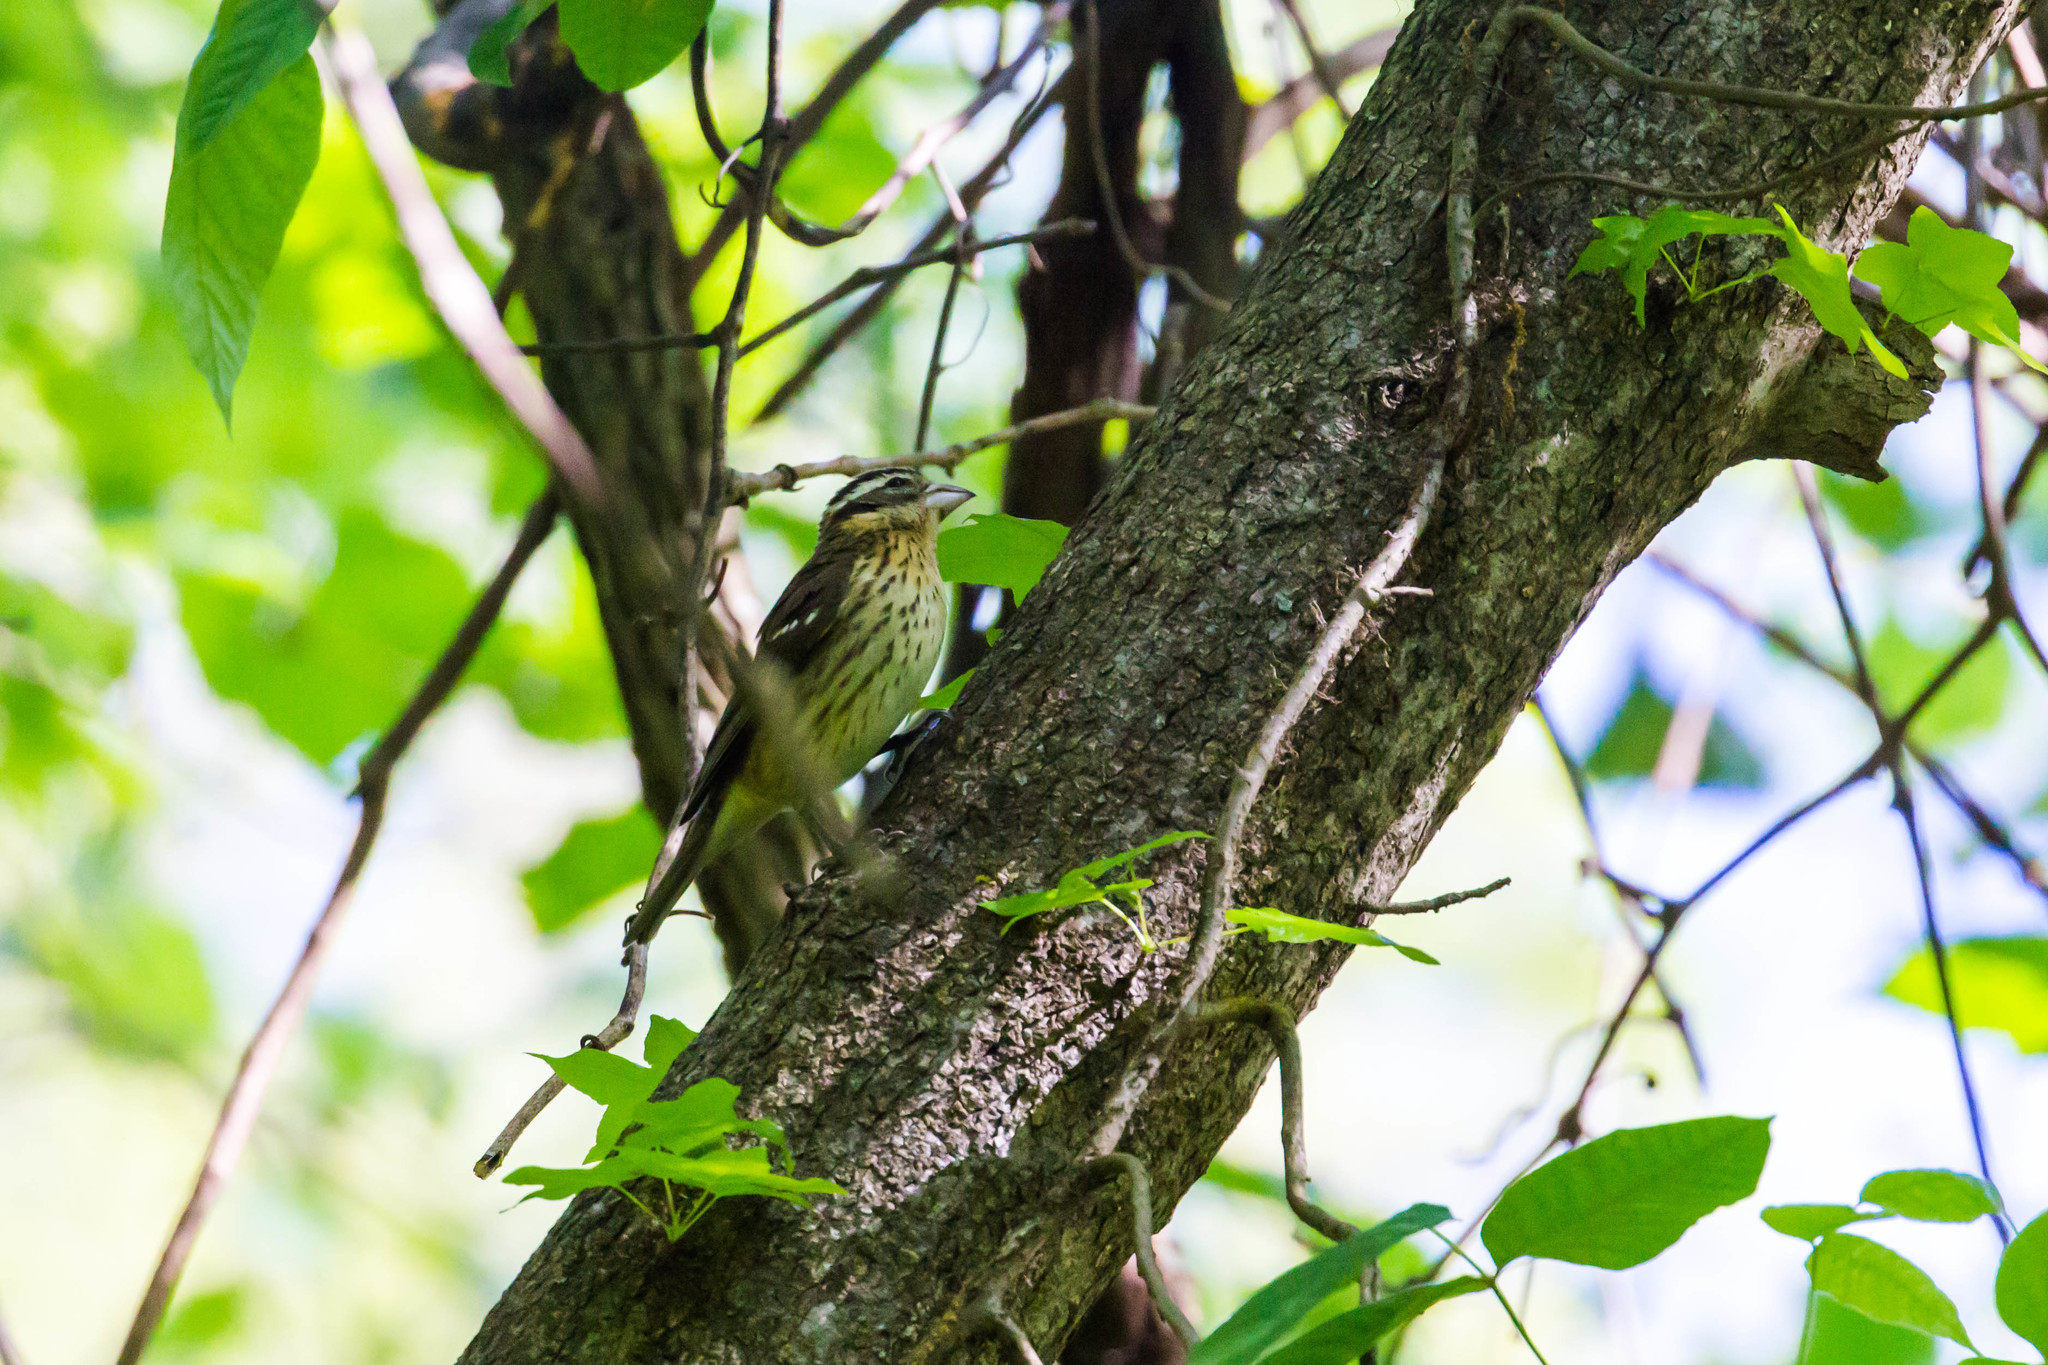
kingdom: Animalia
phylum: Chordata
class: Aves
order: Passeriformes
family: Cardinalidae
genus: Pheucticus
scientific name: Pheucticus ludovicianus
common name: Rose-breasted grosbeak
